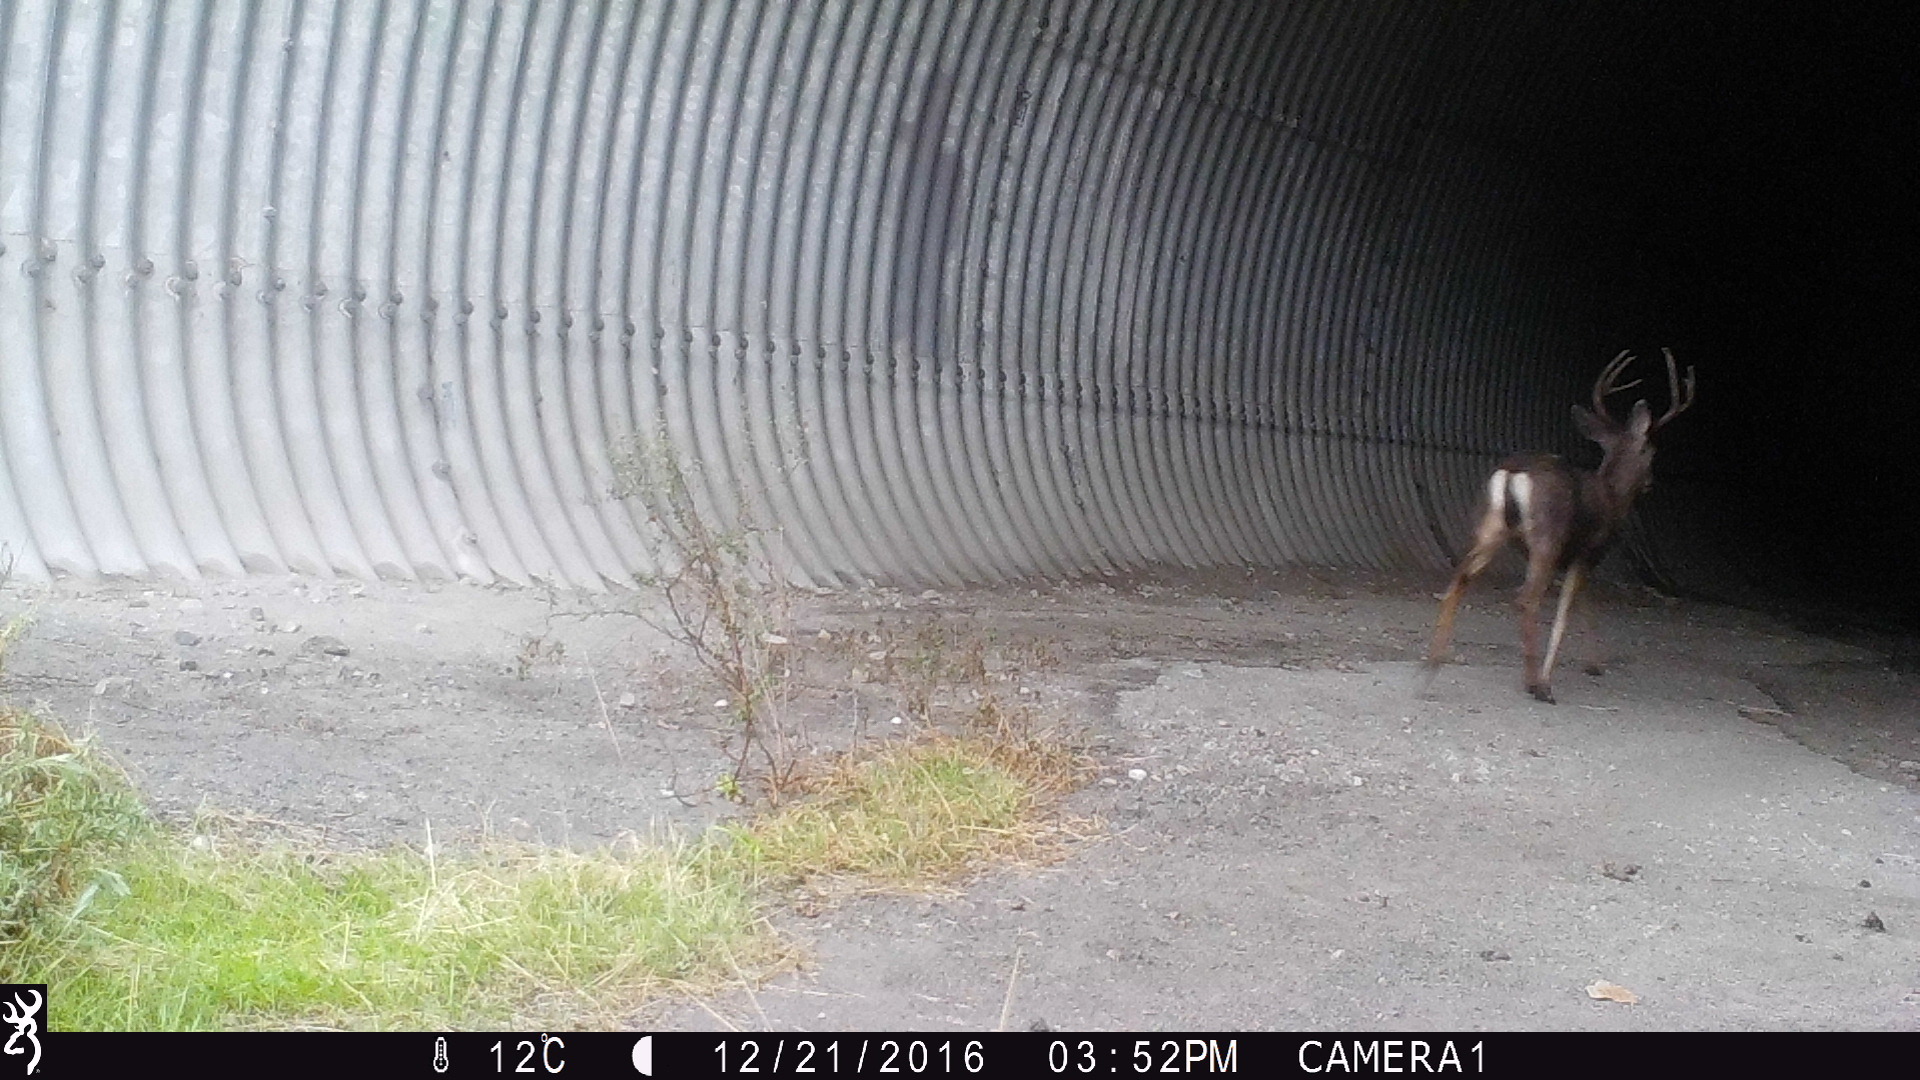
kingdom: Animalia
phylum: Chordata
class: Mammalia
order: Artiodactyla
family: Cervidae
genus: Odocoileus
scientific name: Odocoileus hemionus
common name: Mule deer
